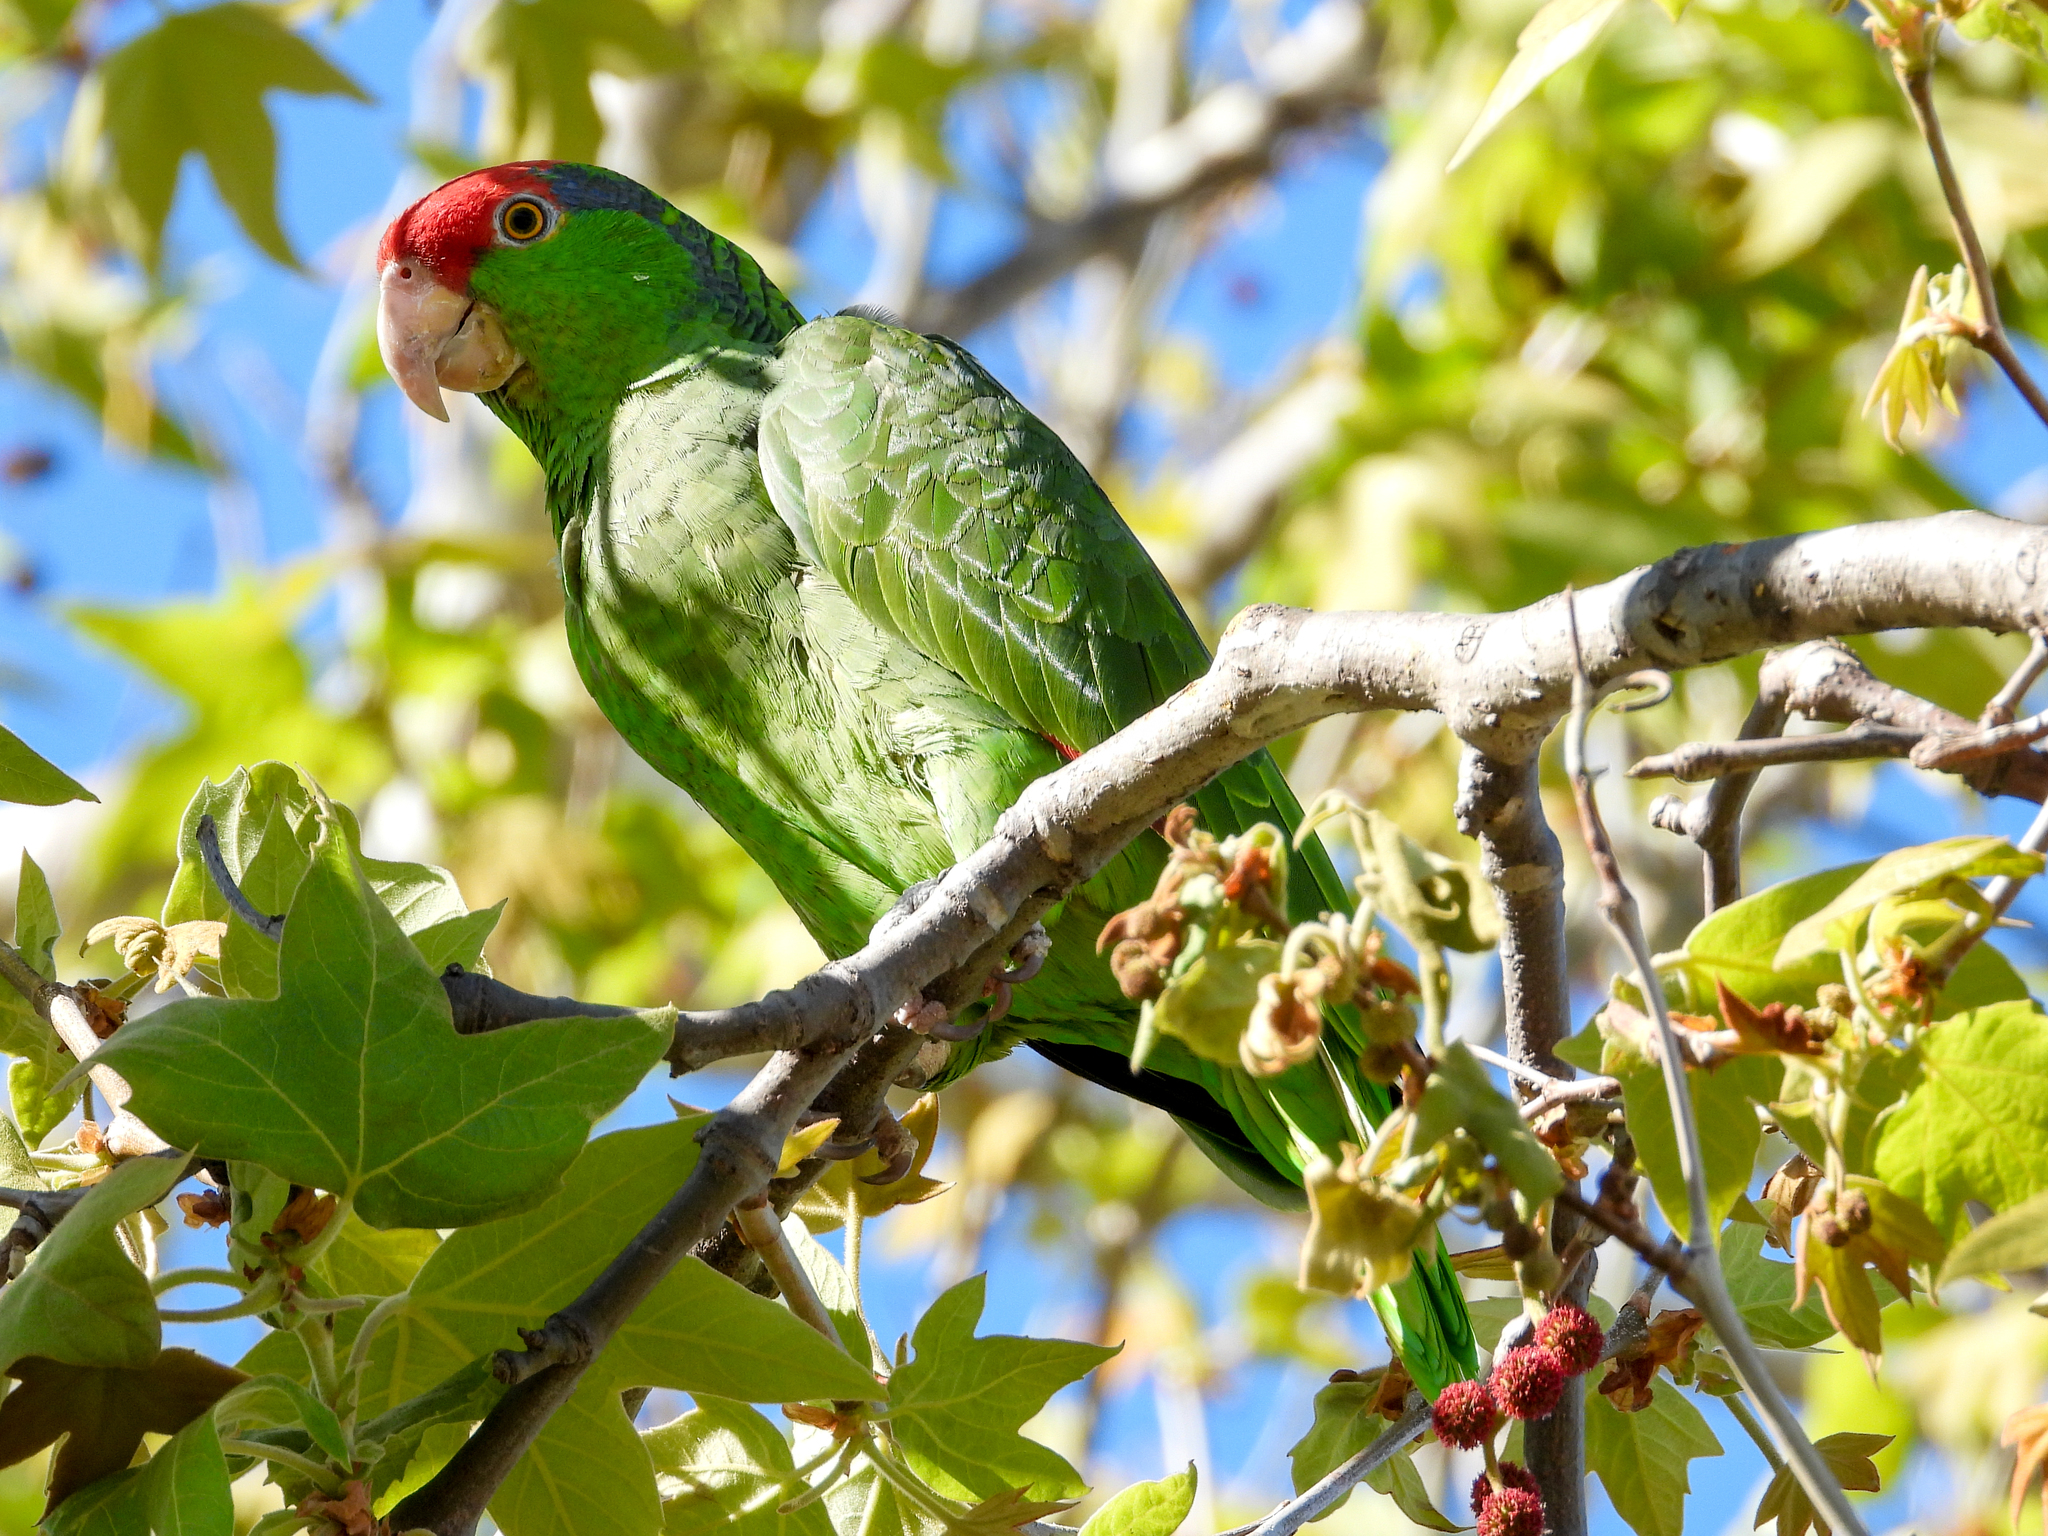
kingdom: Animalia
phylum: Chordata
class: Aves
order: Psittaciformes
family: Psittacidae
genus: Amazona
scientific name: Amazona viridigenalis
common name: Red-crowned amazon
